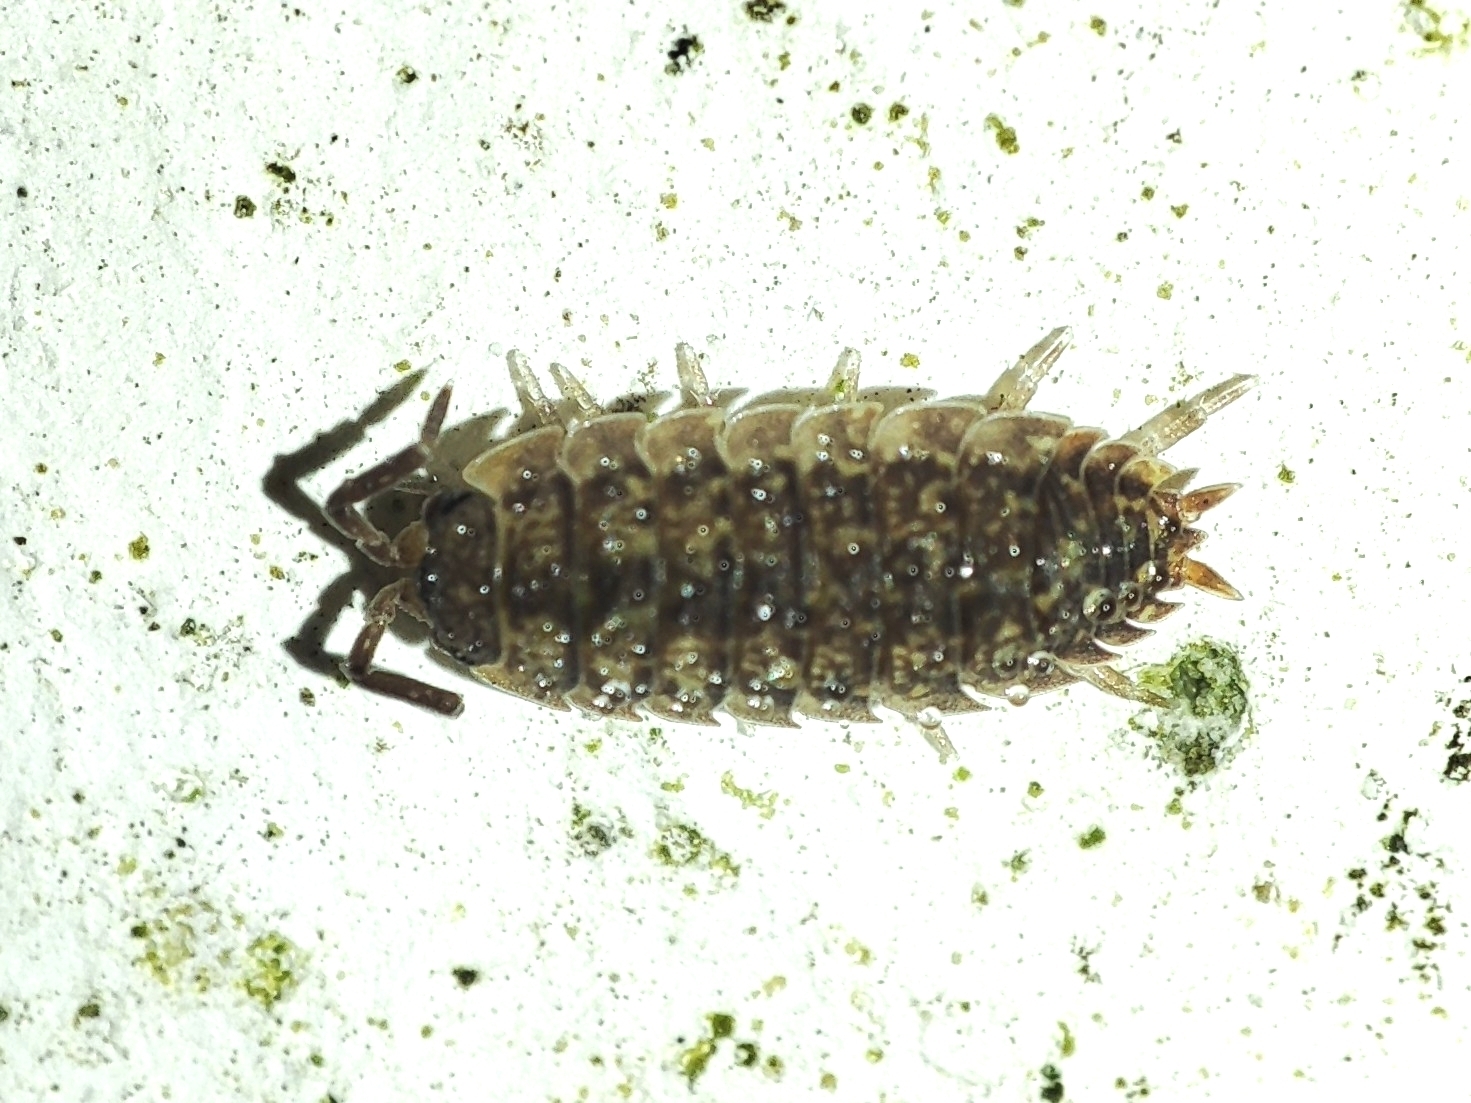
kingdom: Animalia
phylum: Arthropoda
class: Malacostraca
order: Isopoda
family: Porcellionidae
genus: Porcellio
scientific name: Porcellio scaber
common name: Common rough woodlouse
